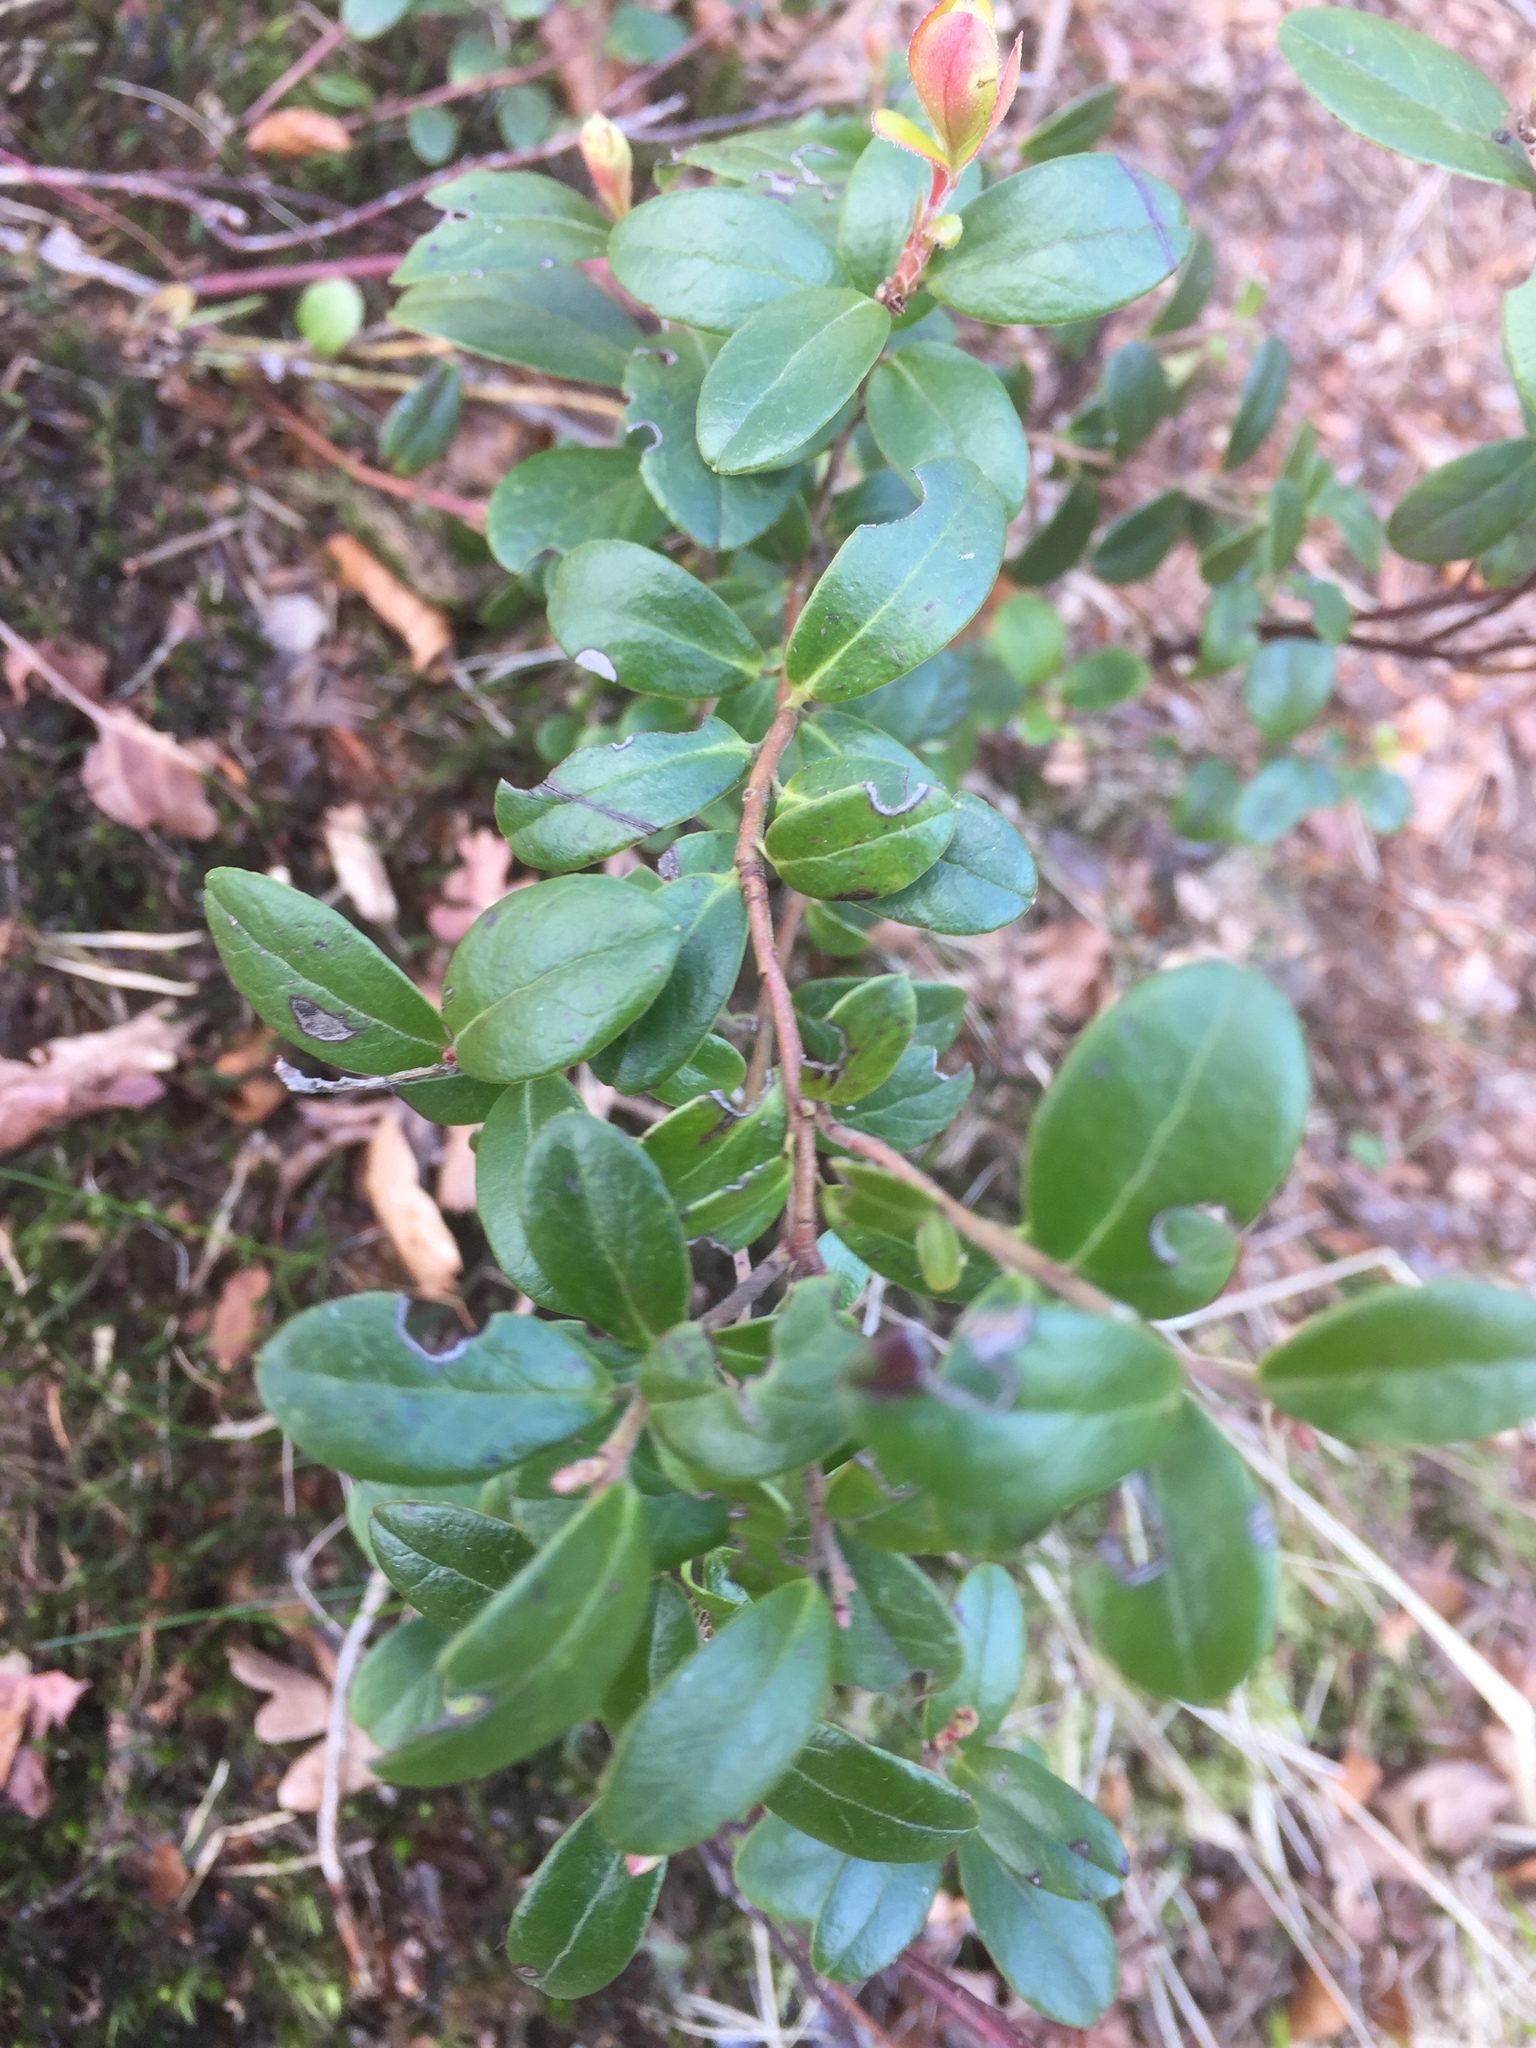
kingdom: Plantae
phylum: Tracheophyta
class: Magnoliopsida
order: Ericales
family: Ericaceae
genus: Vaccinium
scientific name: Vaccinium vitis-idaea
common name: Cowberry
